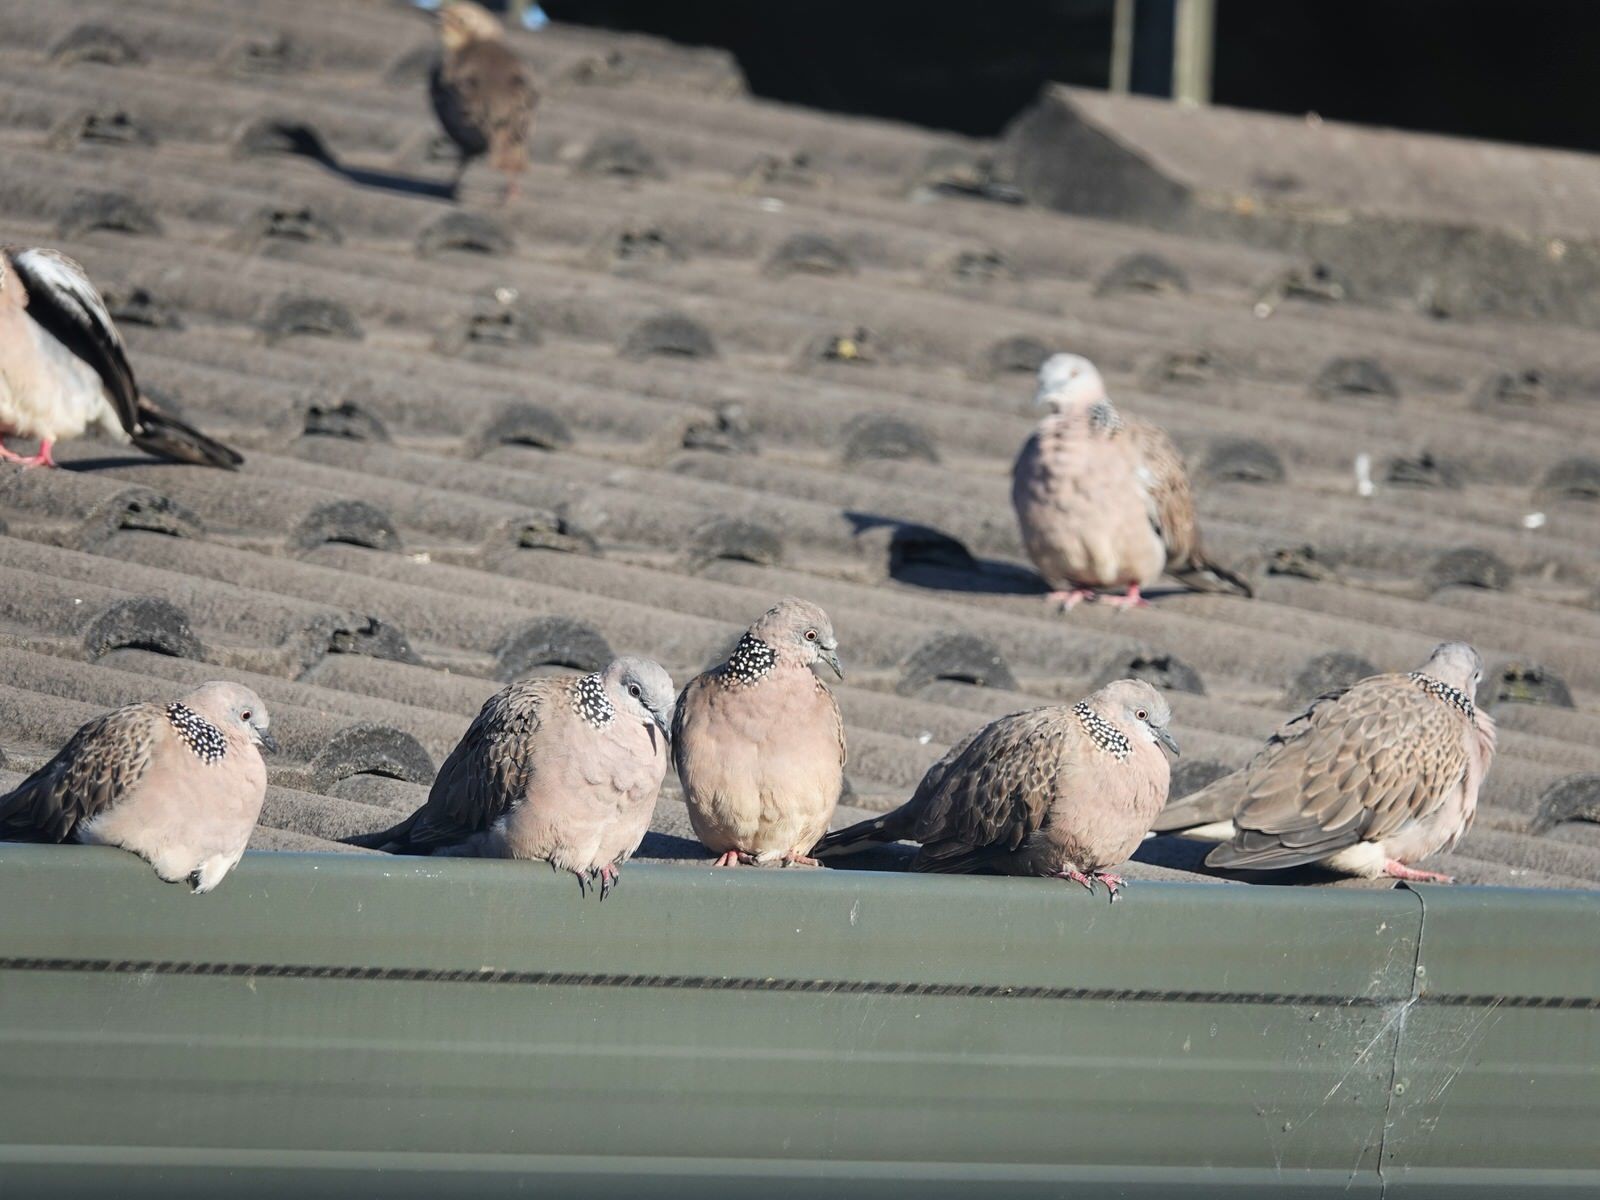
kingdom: Animalia
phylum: Chordata
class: Aves
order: Columbiformes
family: Columbidae
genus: Spilopelia
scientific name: Spilopelia chinensis
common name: Spotted dove
